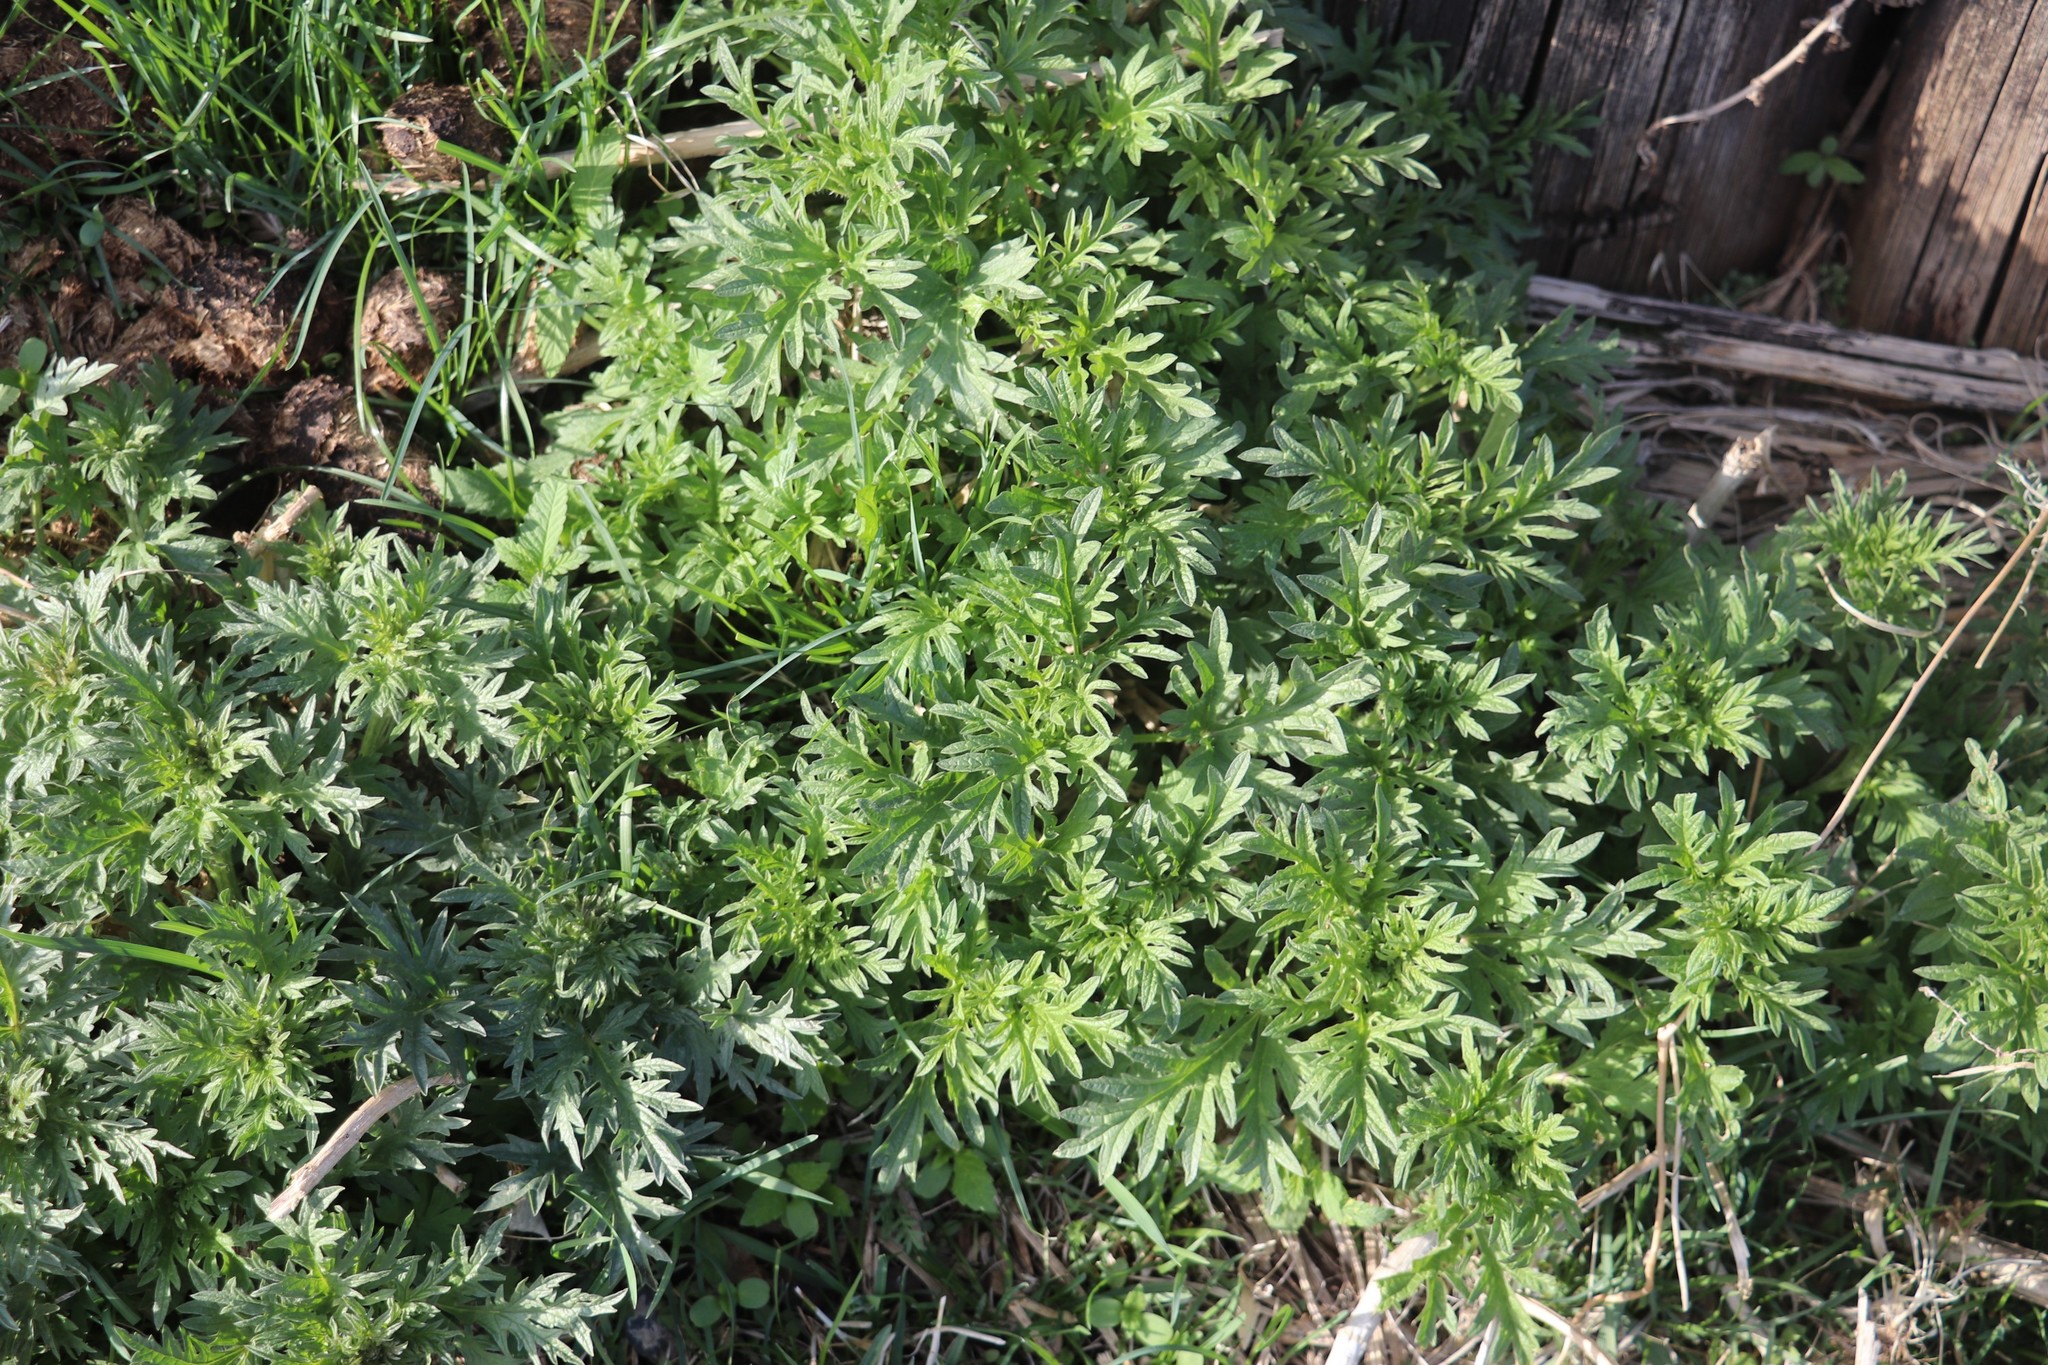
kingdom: Plantae
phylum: Tracheophyta
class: Magnoliopsida
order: Rosales
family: Urticaceae
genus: Urtica
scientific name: Urtica cannabina
